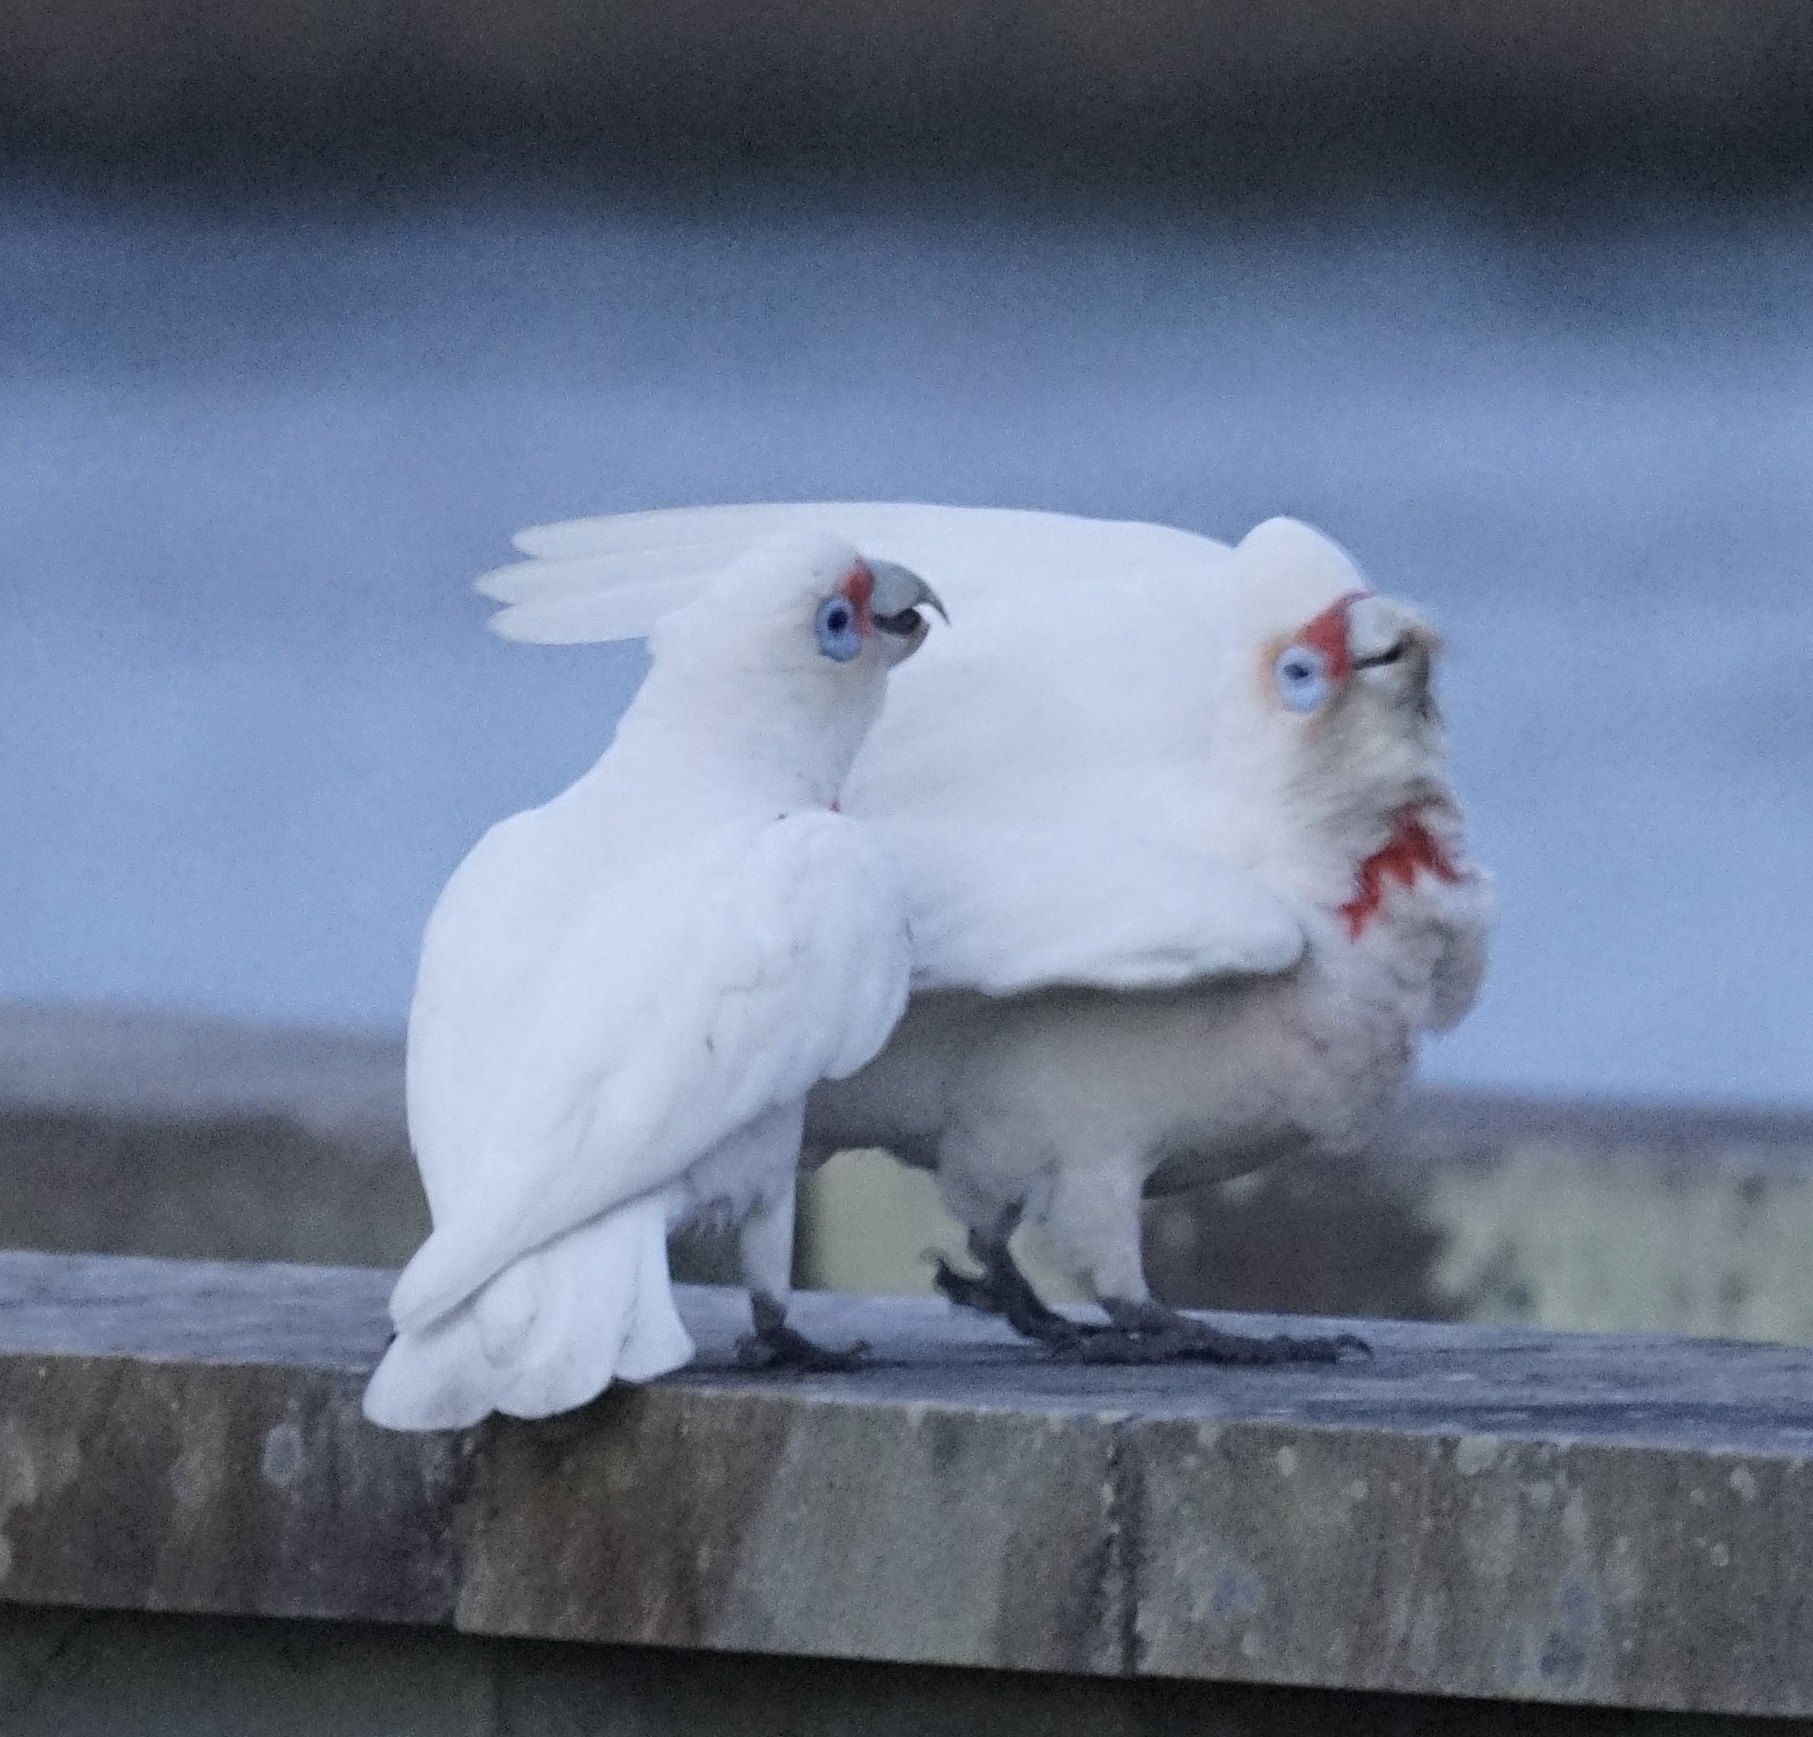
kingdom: Animalia
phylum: Chordata
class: Aves
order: Psittaciformes
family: Psittacidae
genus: Cacatua
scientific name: Cacatua tenuirostris
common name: Long-billed corella
